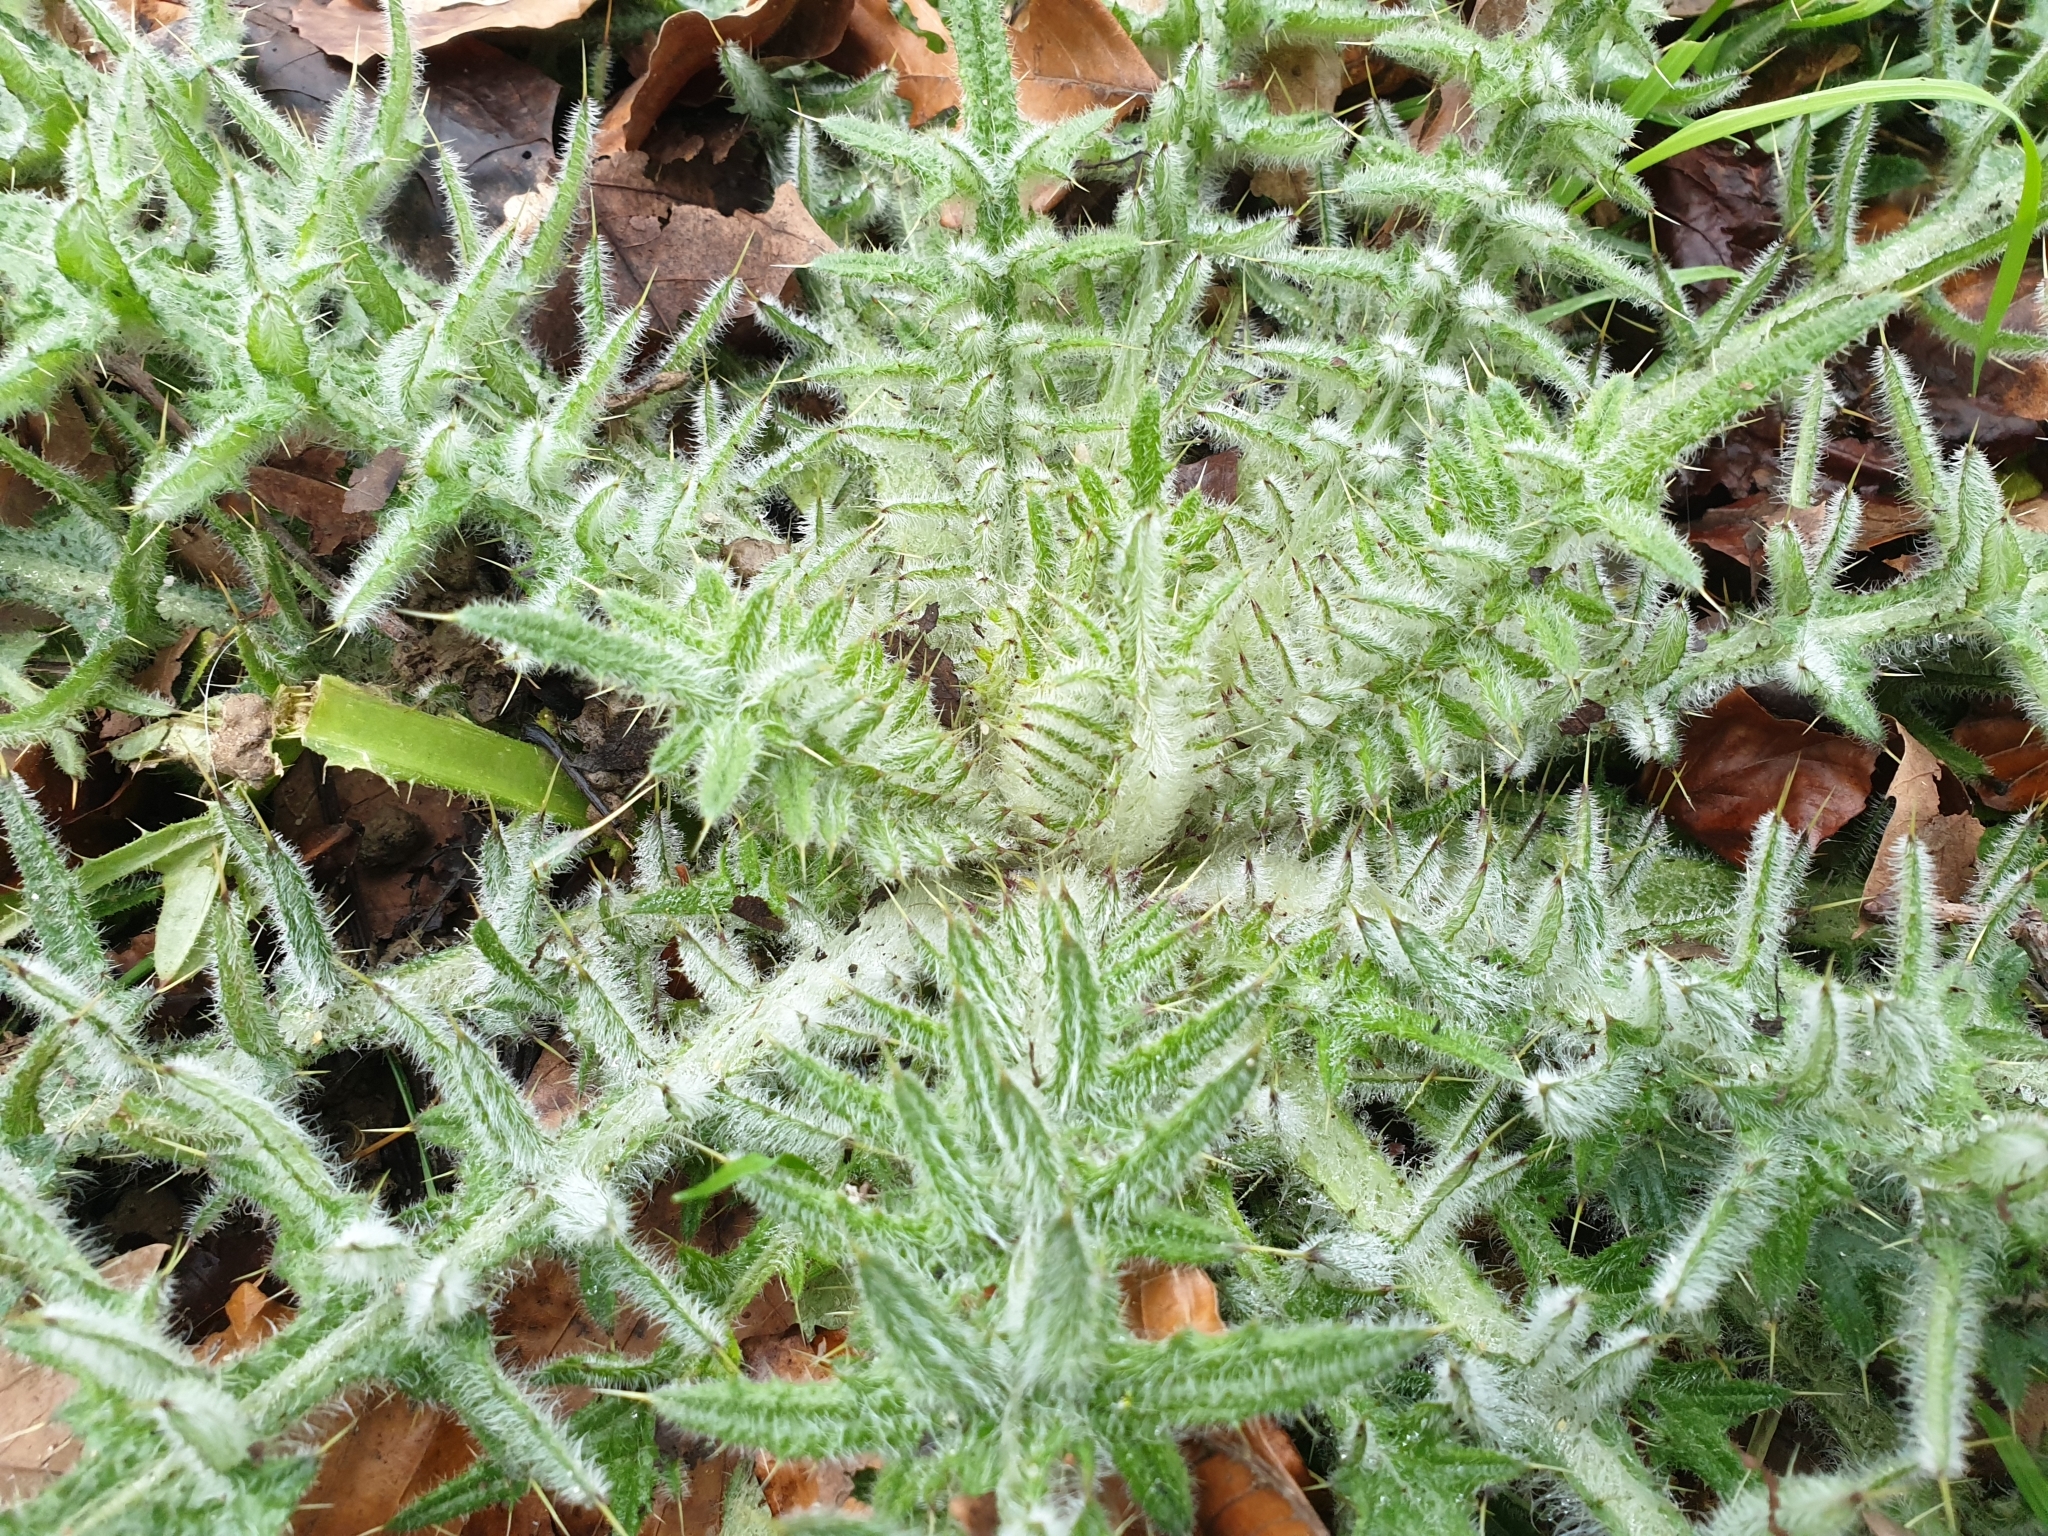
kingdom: Plantae
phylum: Tracheophyta
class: Magnoliopsida
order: Asterales
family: Asteraceae
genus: Cirsium
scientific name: Cirsium vulgare
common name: Bull thistle
